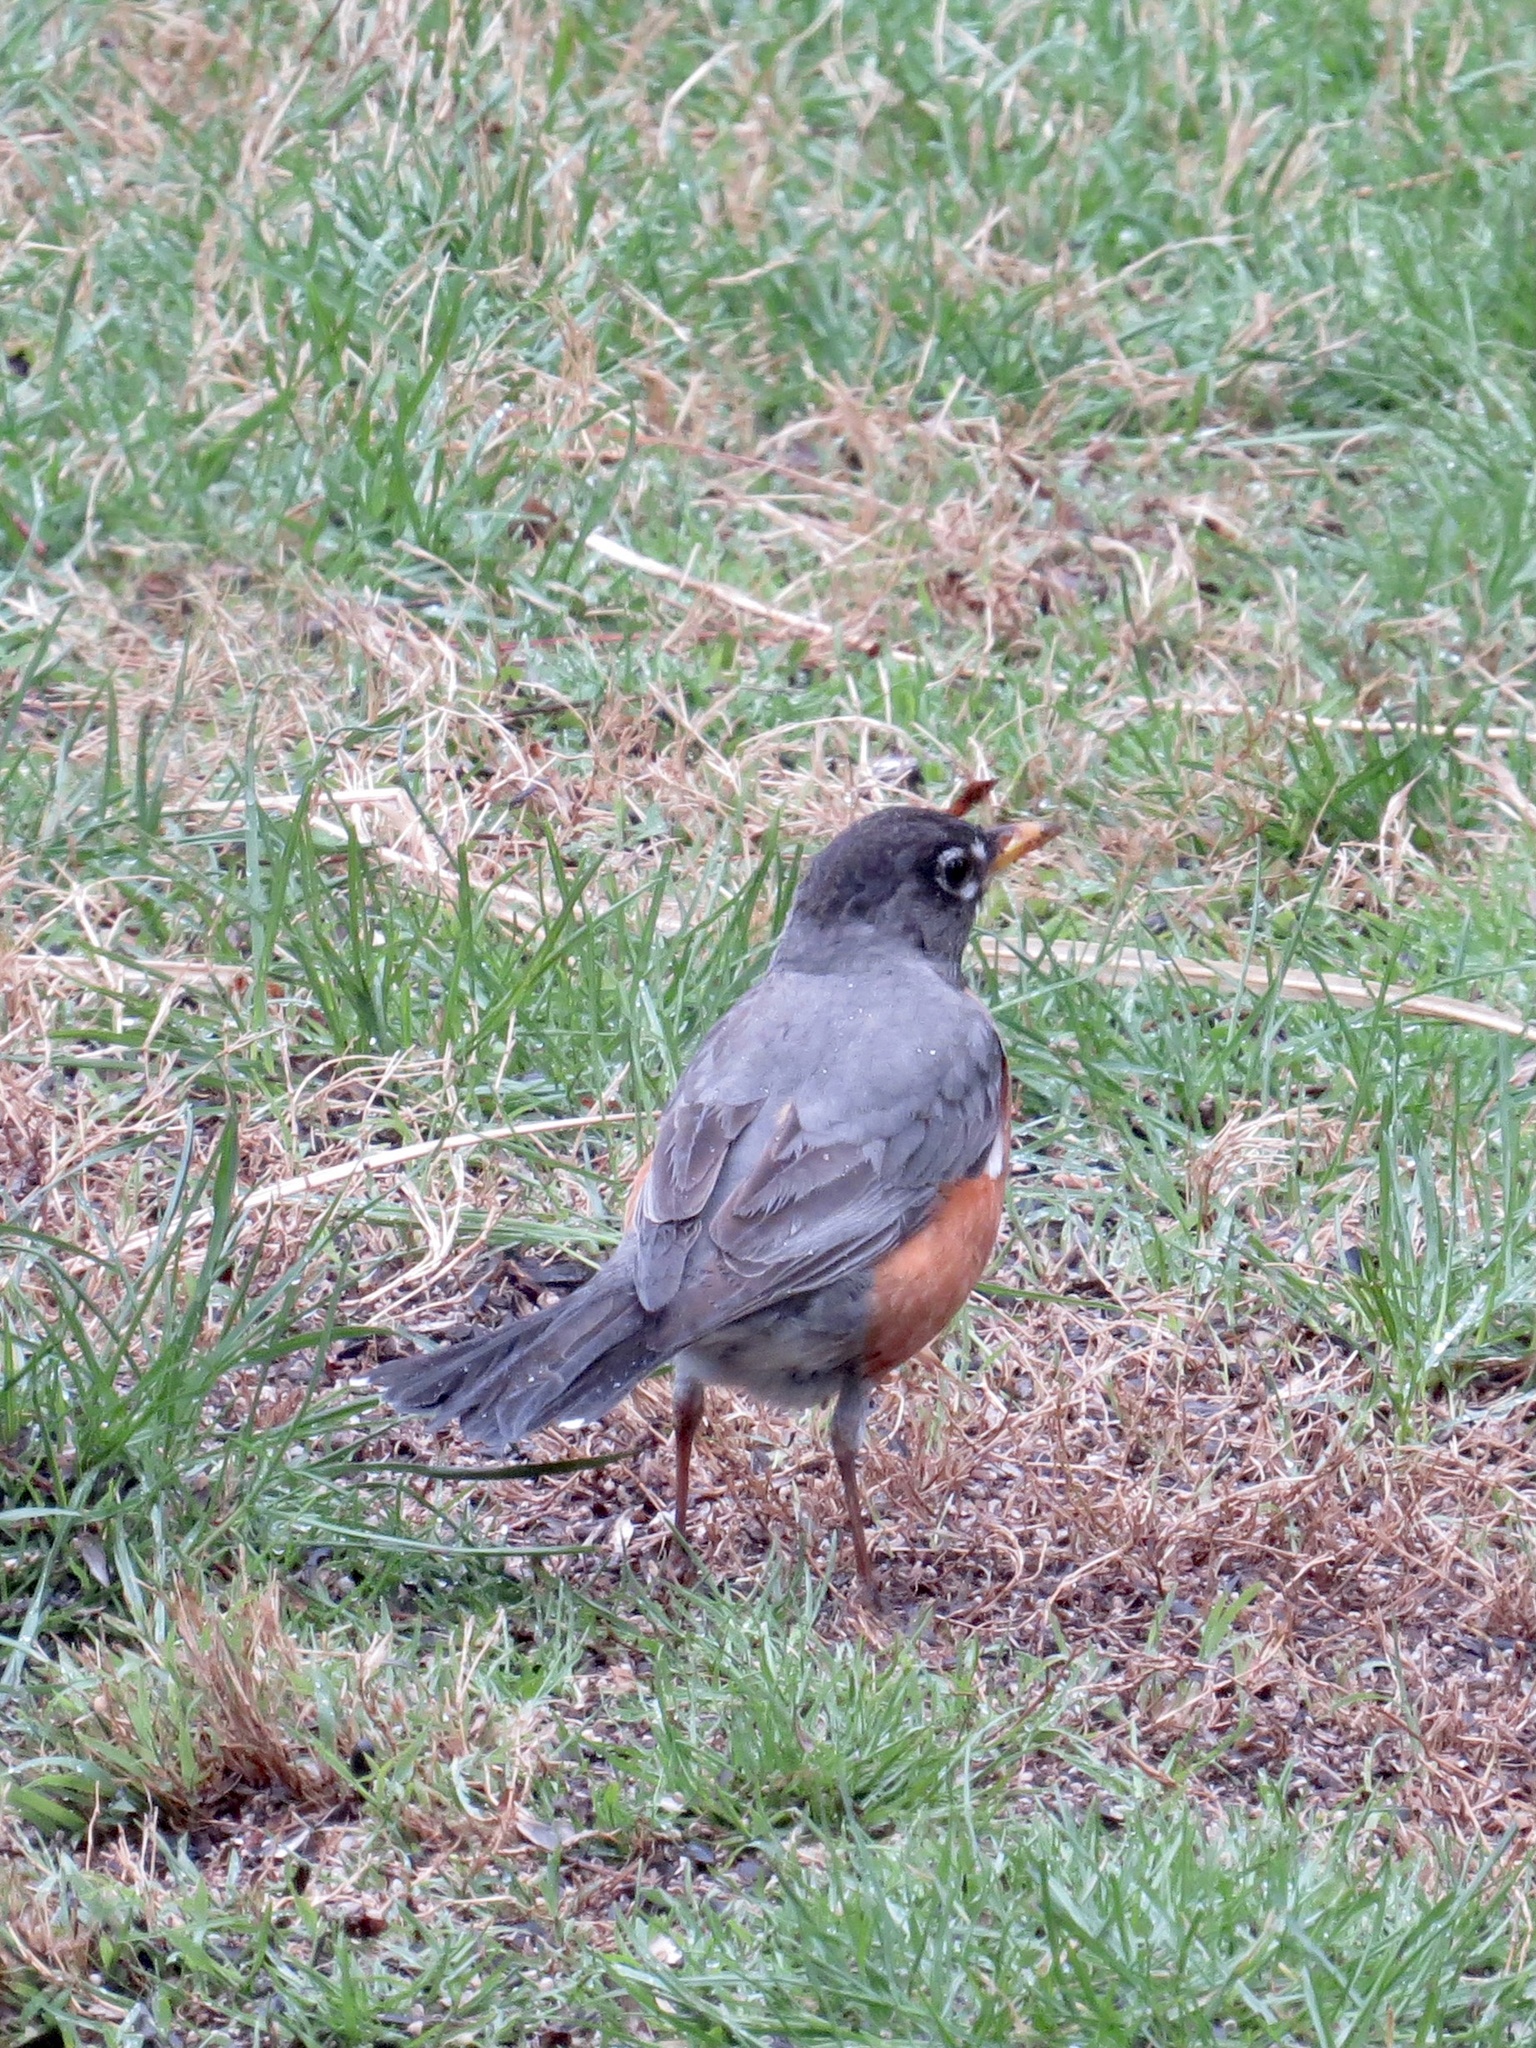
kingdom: Animalia
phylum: Chordata
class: Aves
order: Passeriformes
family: Turdidae
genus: Turdus
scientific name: Turdus migratorius
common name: American robin
